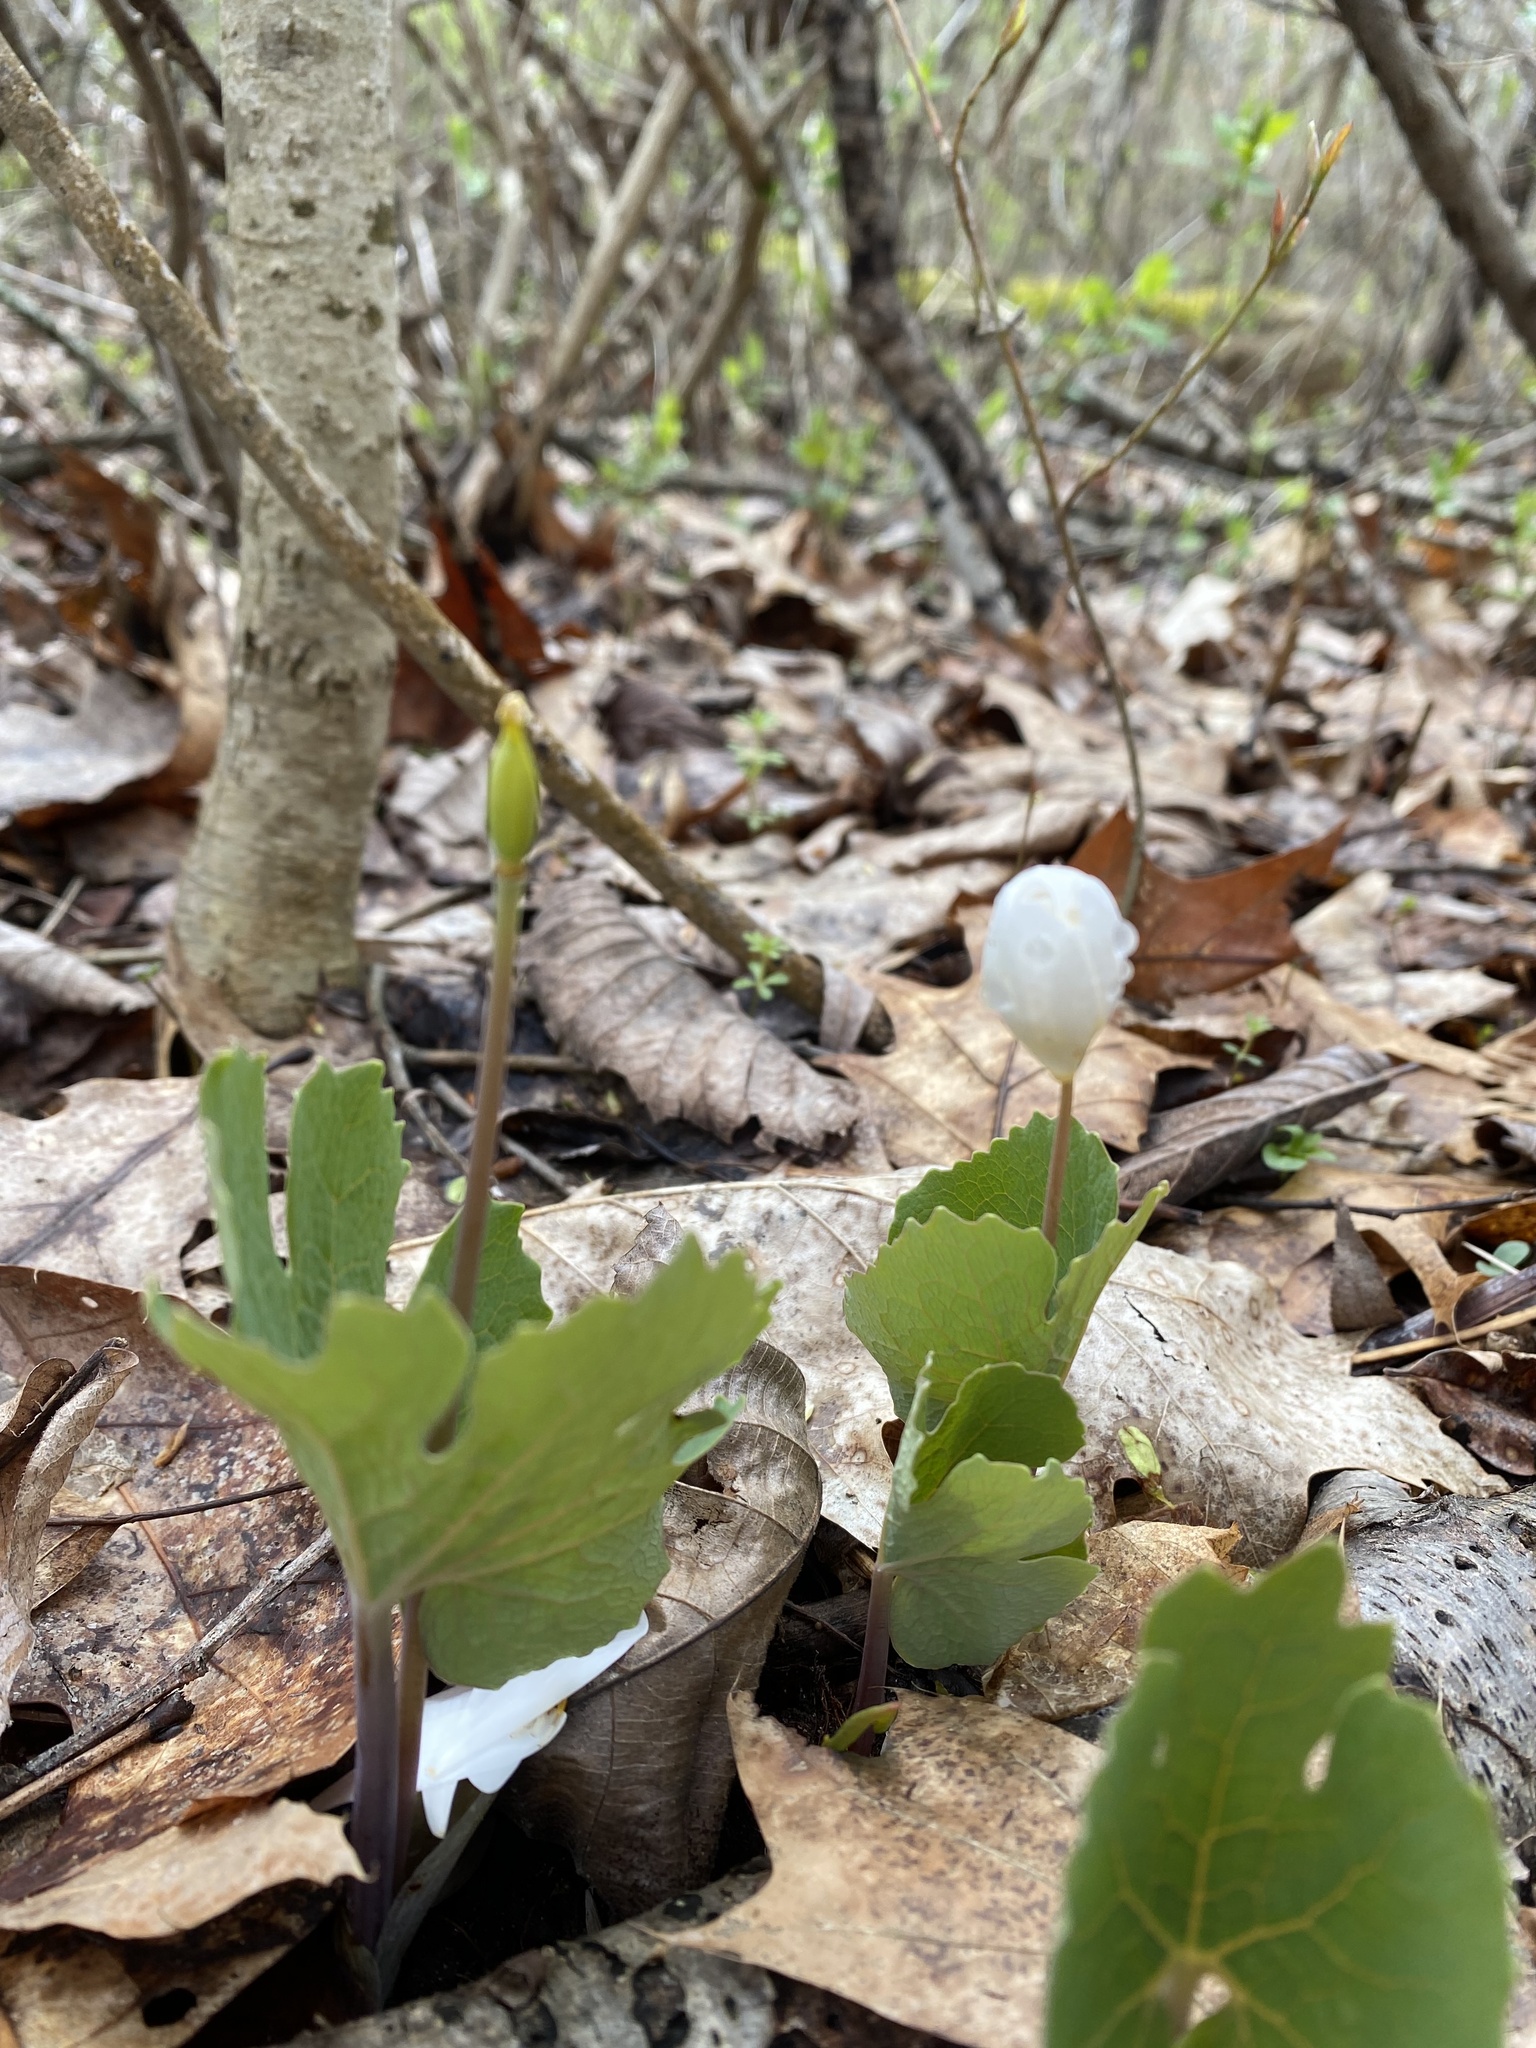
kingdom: Plantae
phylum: Tracheophyta
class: Magnoliopsida
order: Ranunculales
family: Papaveraceae
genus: Sanguinaria
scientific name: Sanguinaria canadensis
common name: Bloodroot
